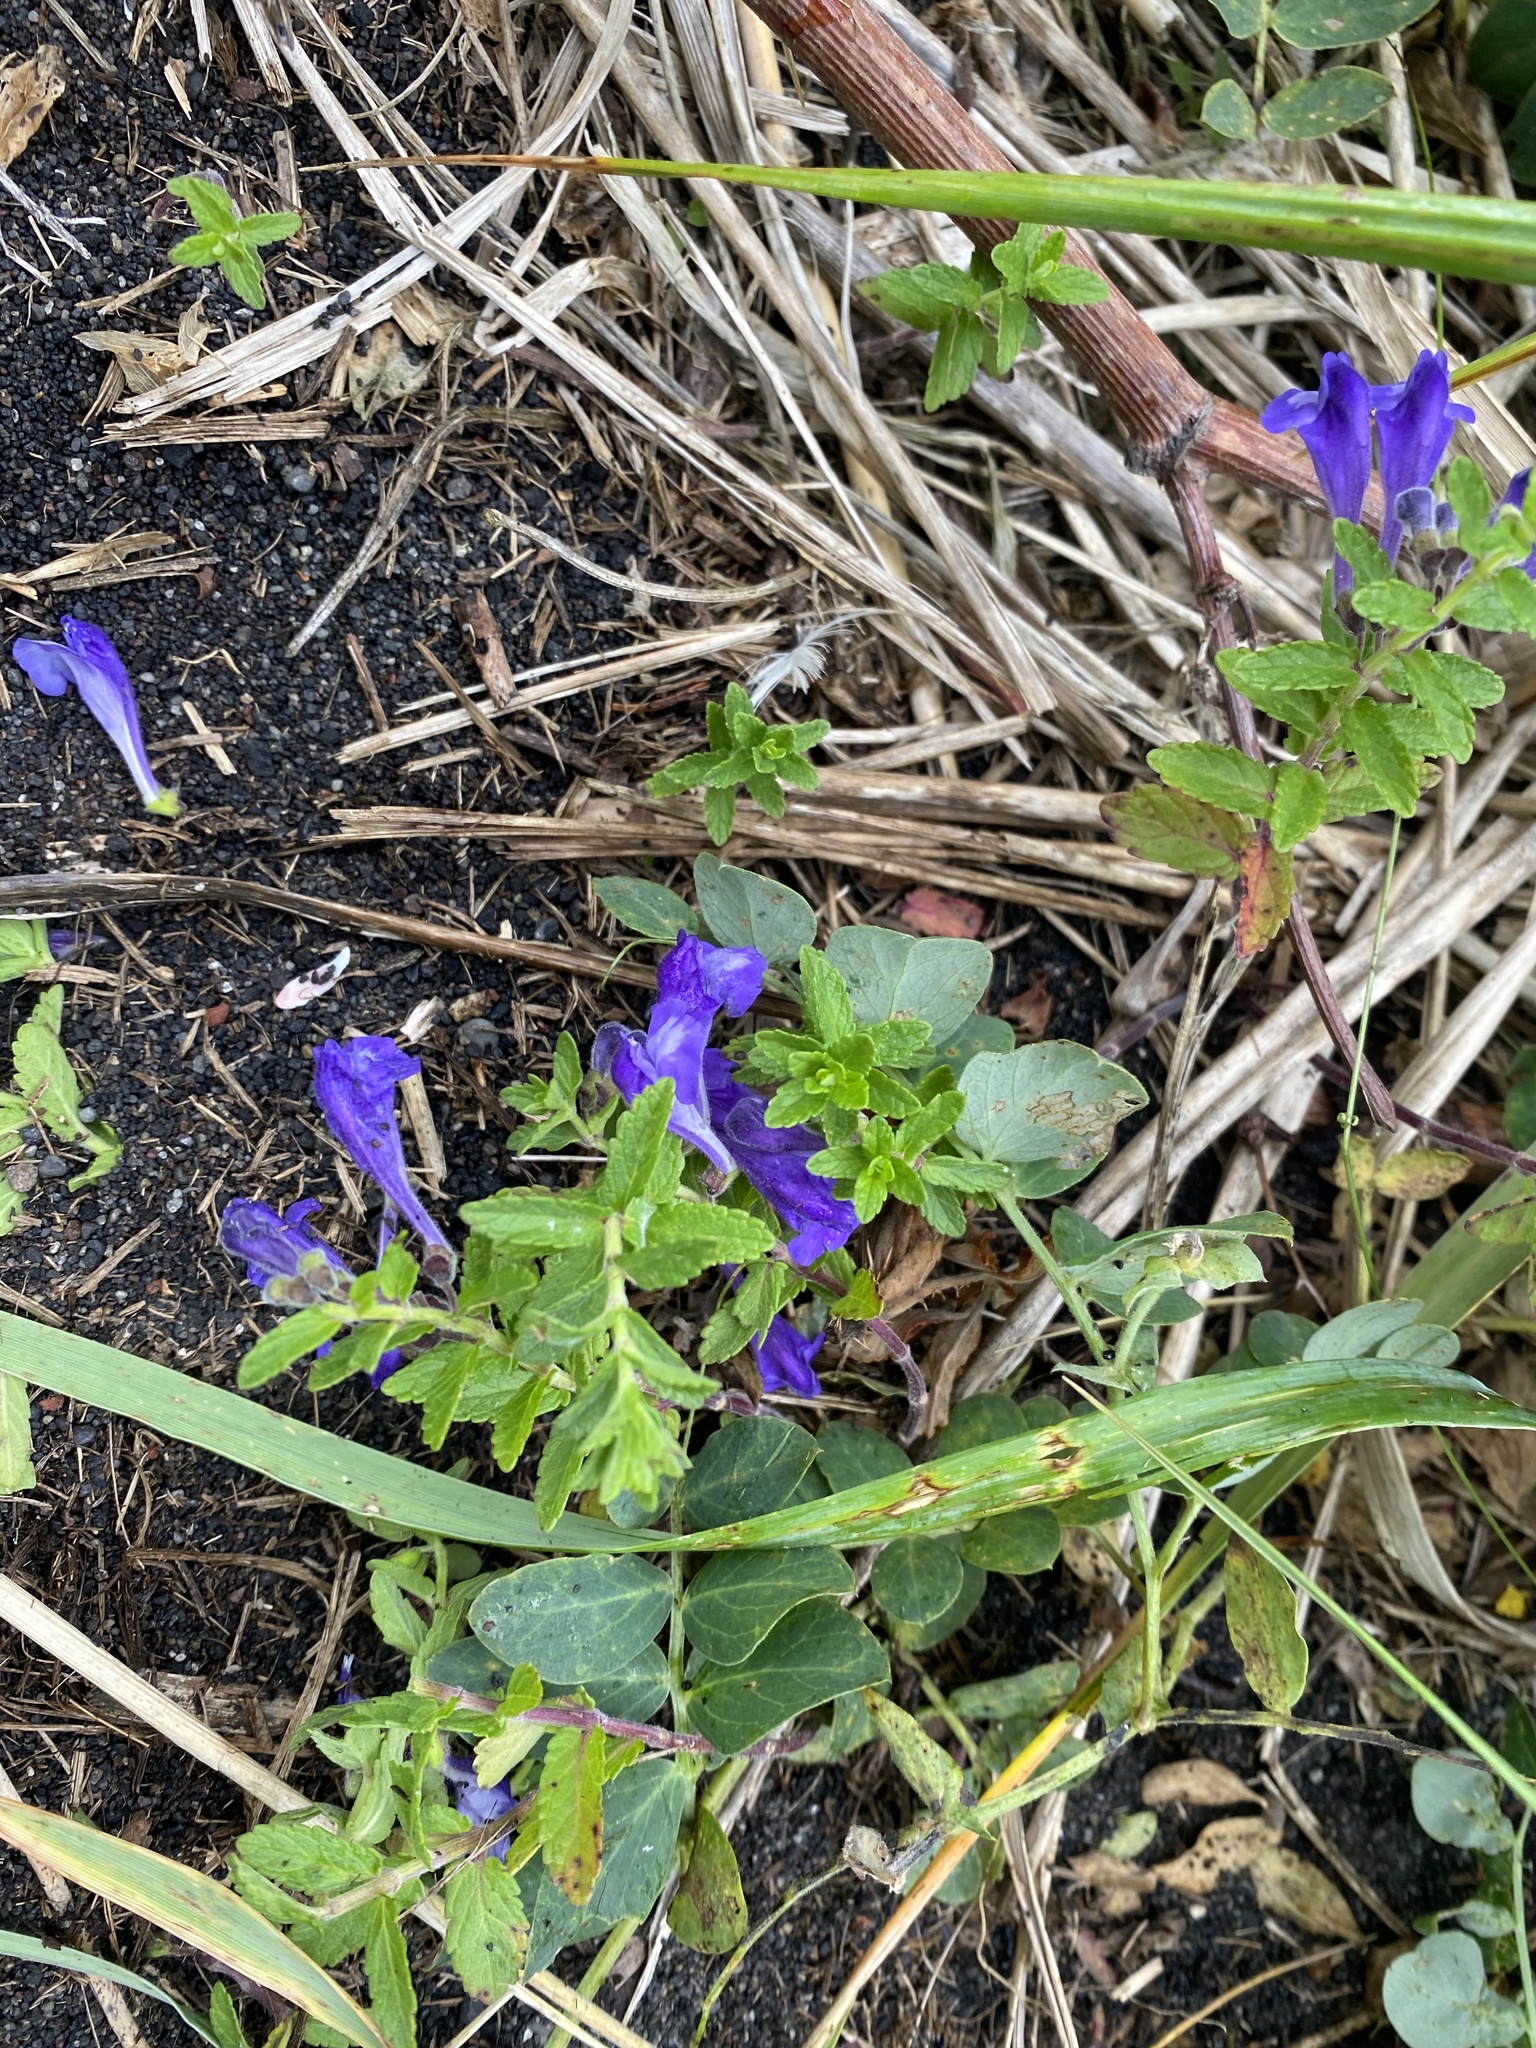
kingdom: Plantae
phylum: Tracheophyta
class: Magnoliopsida
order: Lamiales
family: Lamiaceae
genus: Scutellaria
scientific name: Scutellaria strigillosa
